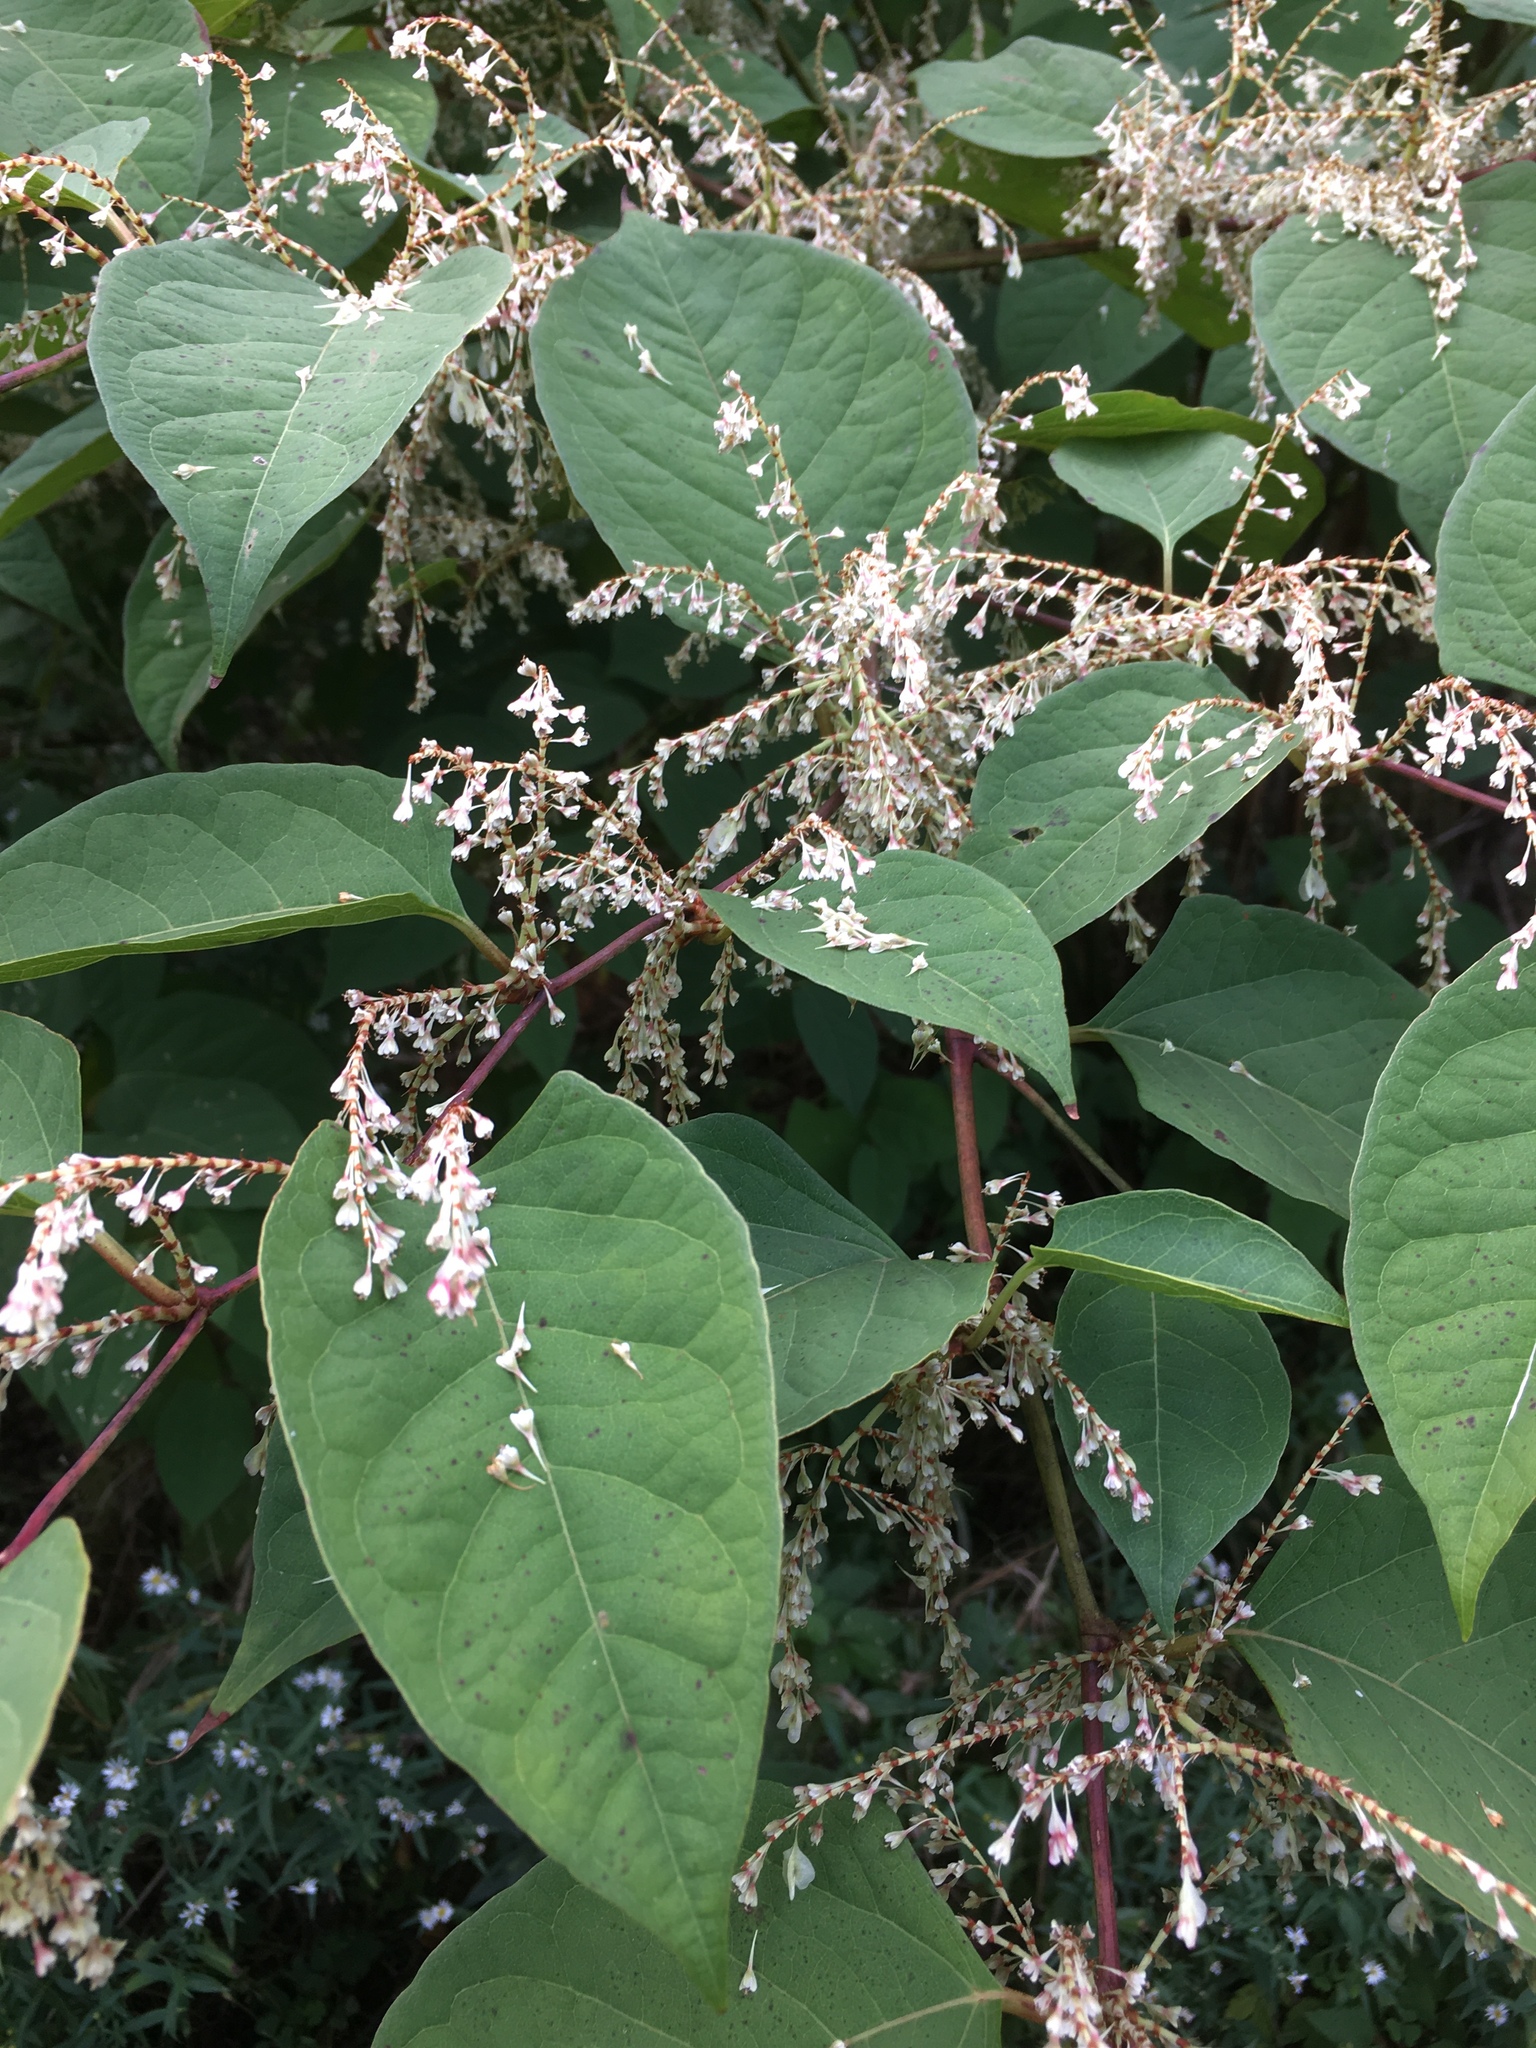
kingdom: Plantae
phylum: Tracheophyta
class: Magnoliopsida
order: Caryophyllales
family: Polygonaceae
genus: Reynoutria
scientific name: Reynoutria japonica
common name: Japanese knotweed
